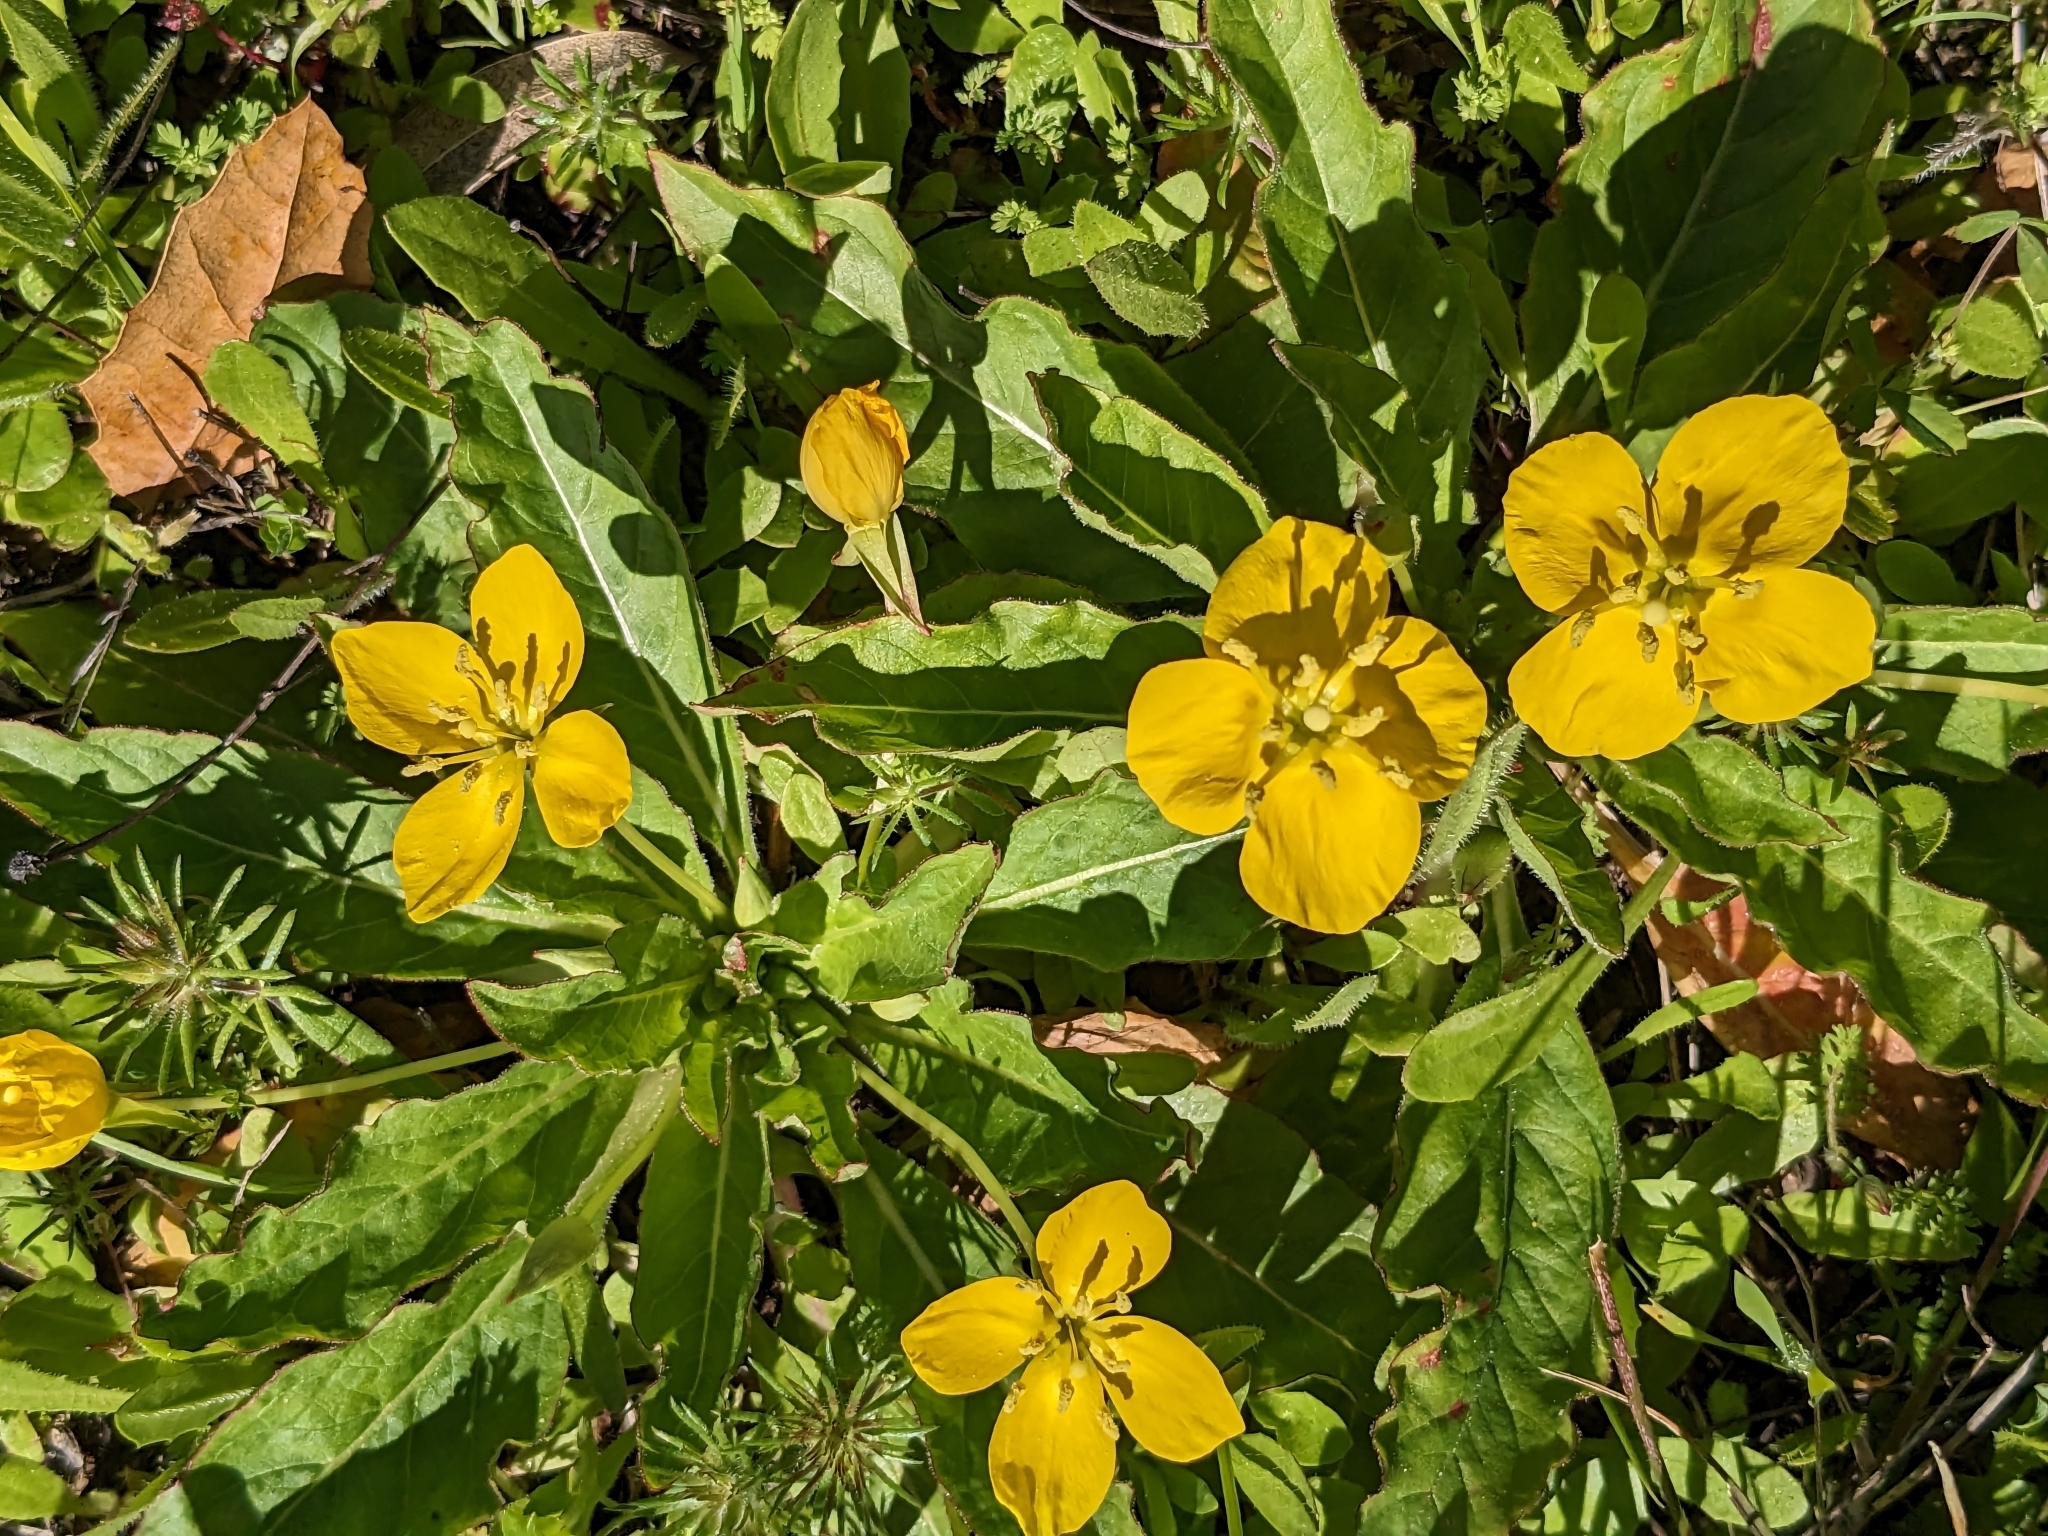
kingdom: Plantae
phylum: Tracheophyta
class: Magnoliopsida
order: Myrtales
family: Onagraceae
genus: Taraxia
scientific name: Taraxia ovata
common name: Goldeneggs
